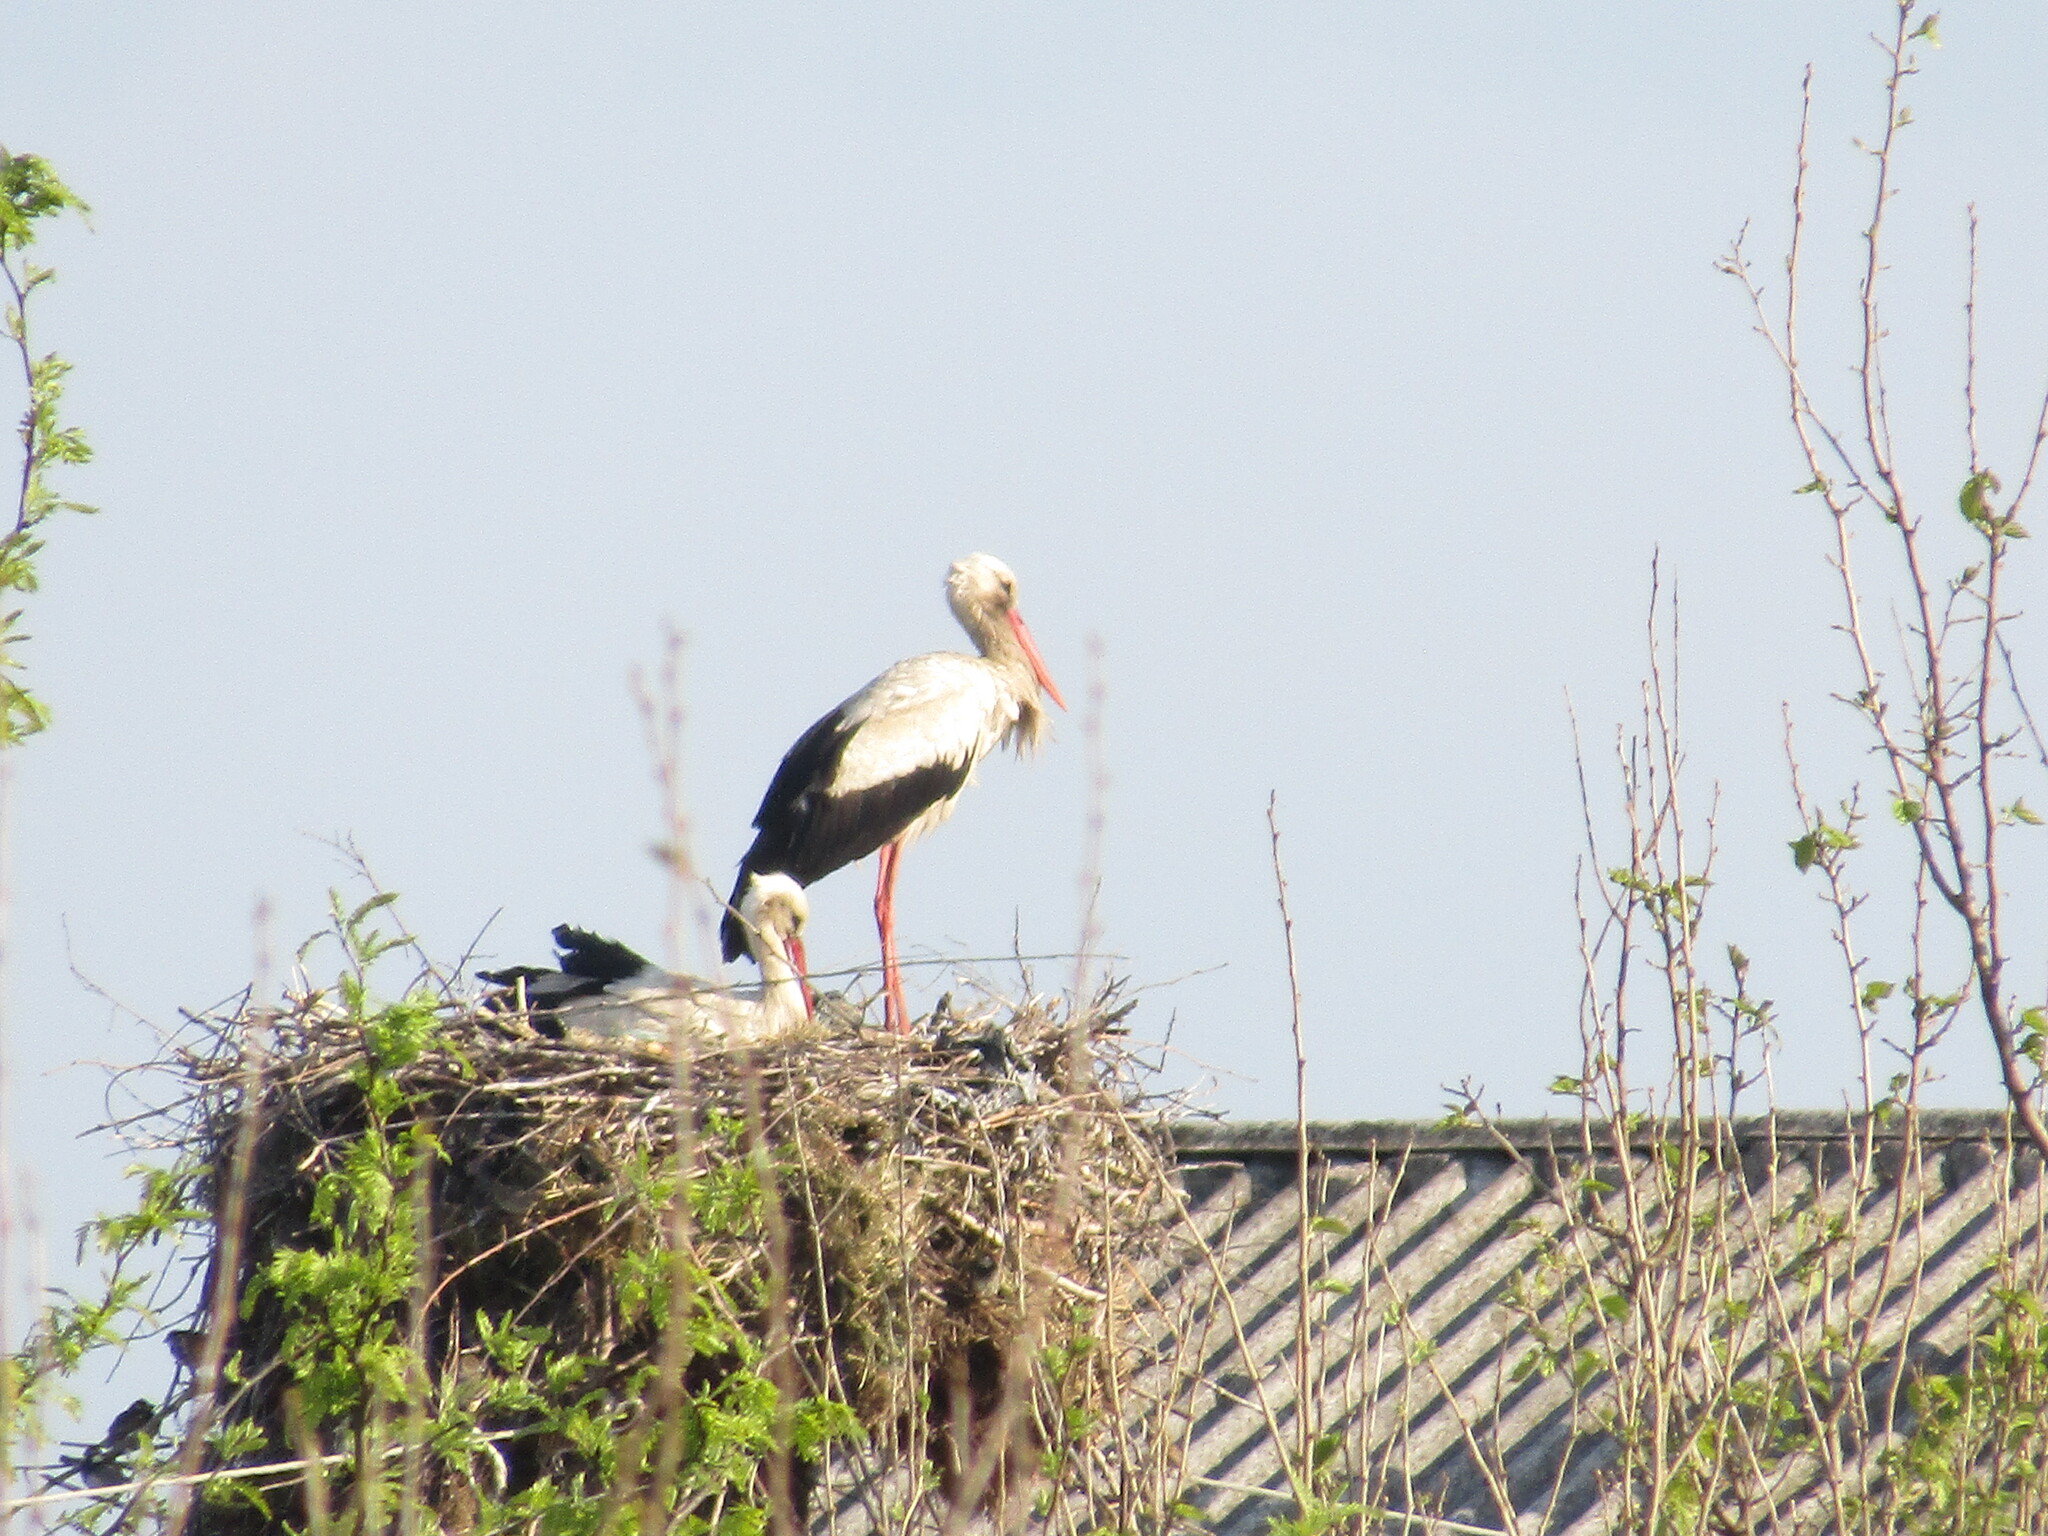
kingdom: Animalia
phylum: Chordata
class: Aves
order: Ciconiiformes
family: Ciconiidae
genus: Ciconia
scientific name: Ciconia ciconia
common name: White stork
